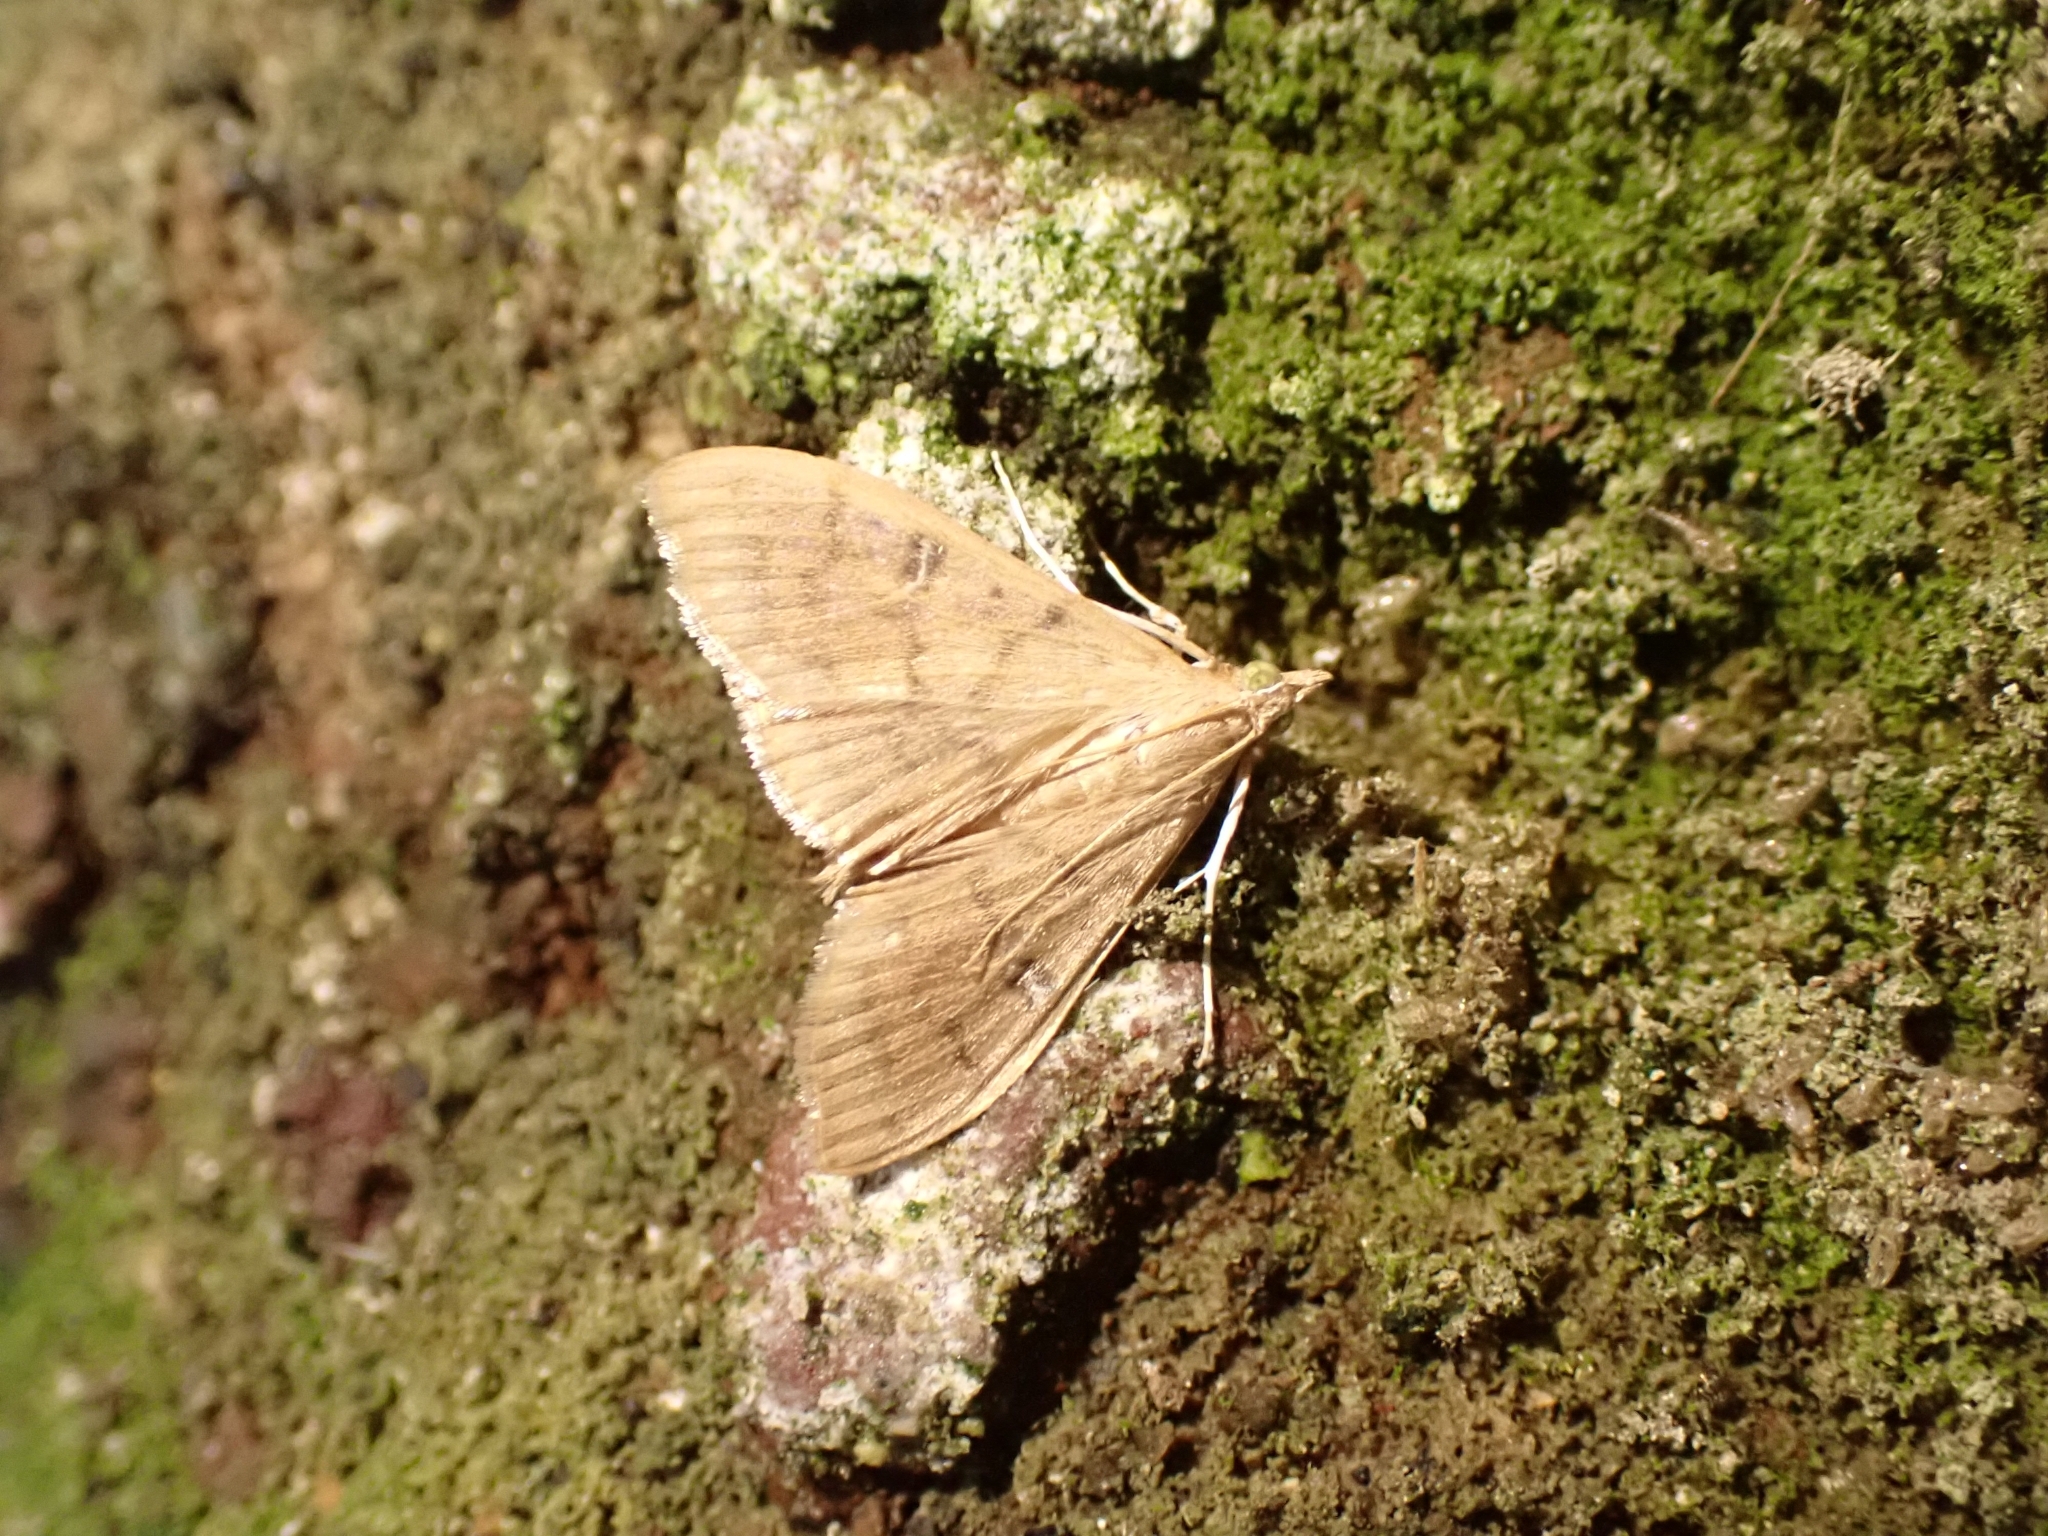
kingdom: Animalia
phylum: Arthropoda
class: Insecta
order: Lepidoptera
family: Crambidae
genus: Botyodes
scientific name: Botyodes diniasalis
